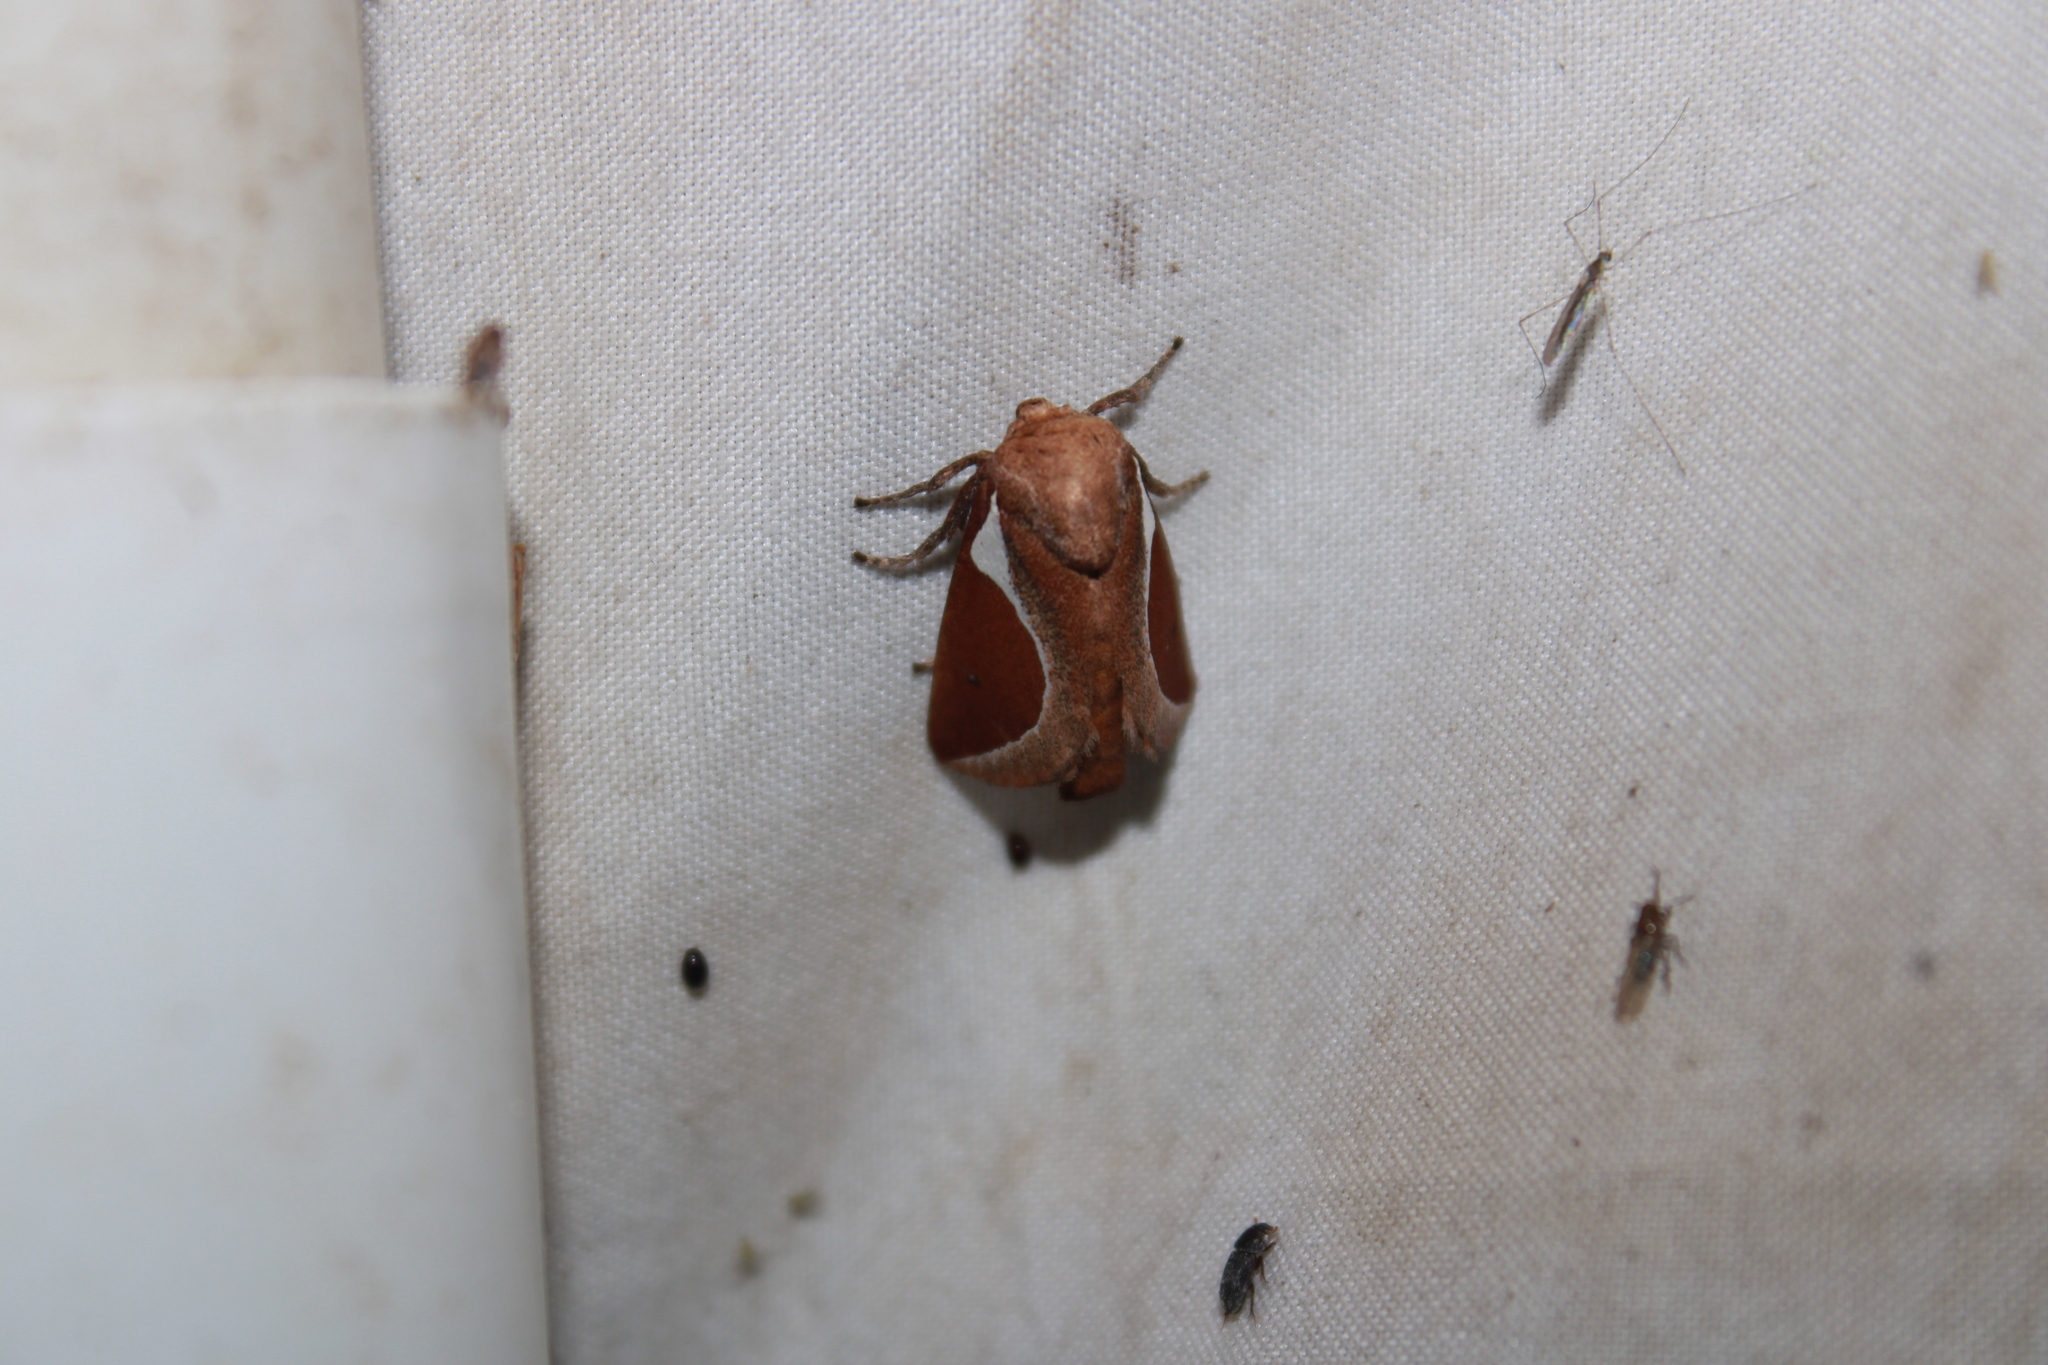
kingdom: Animalia
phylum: Arthropoda
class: Insecta
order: Lepidoptera
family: Limacodidae
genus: Prolimacodes
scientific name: Prolimacodes badia
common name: Skiff moth
